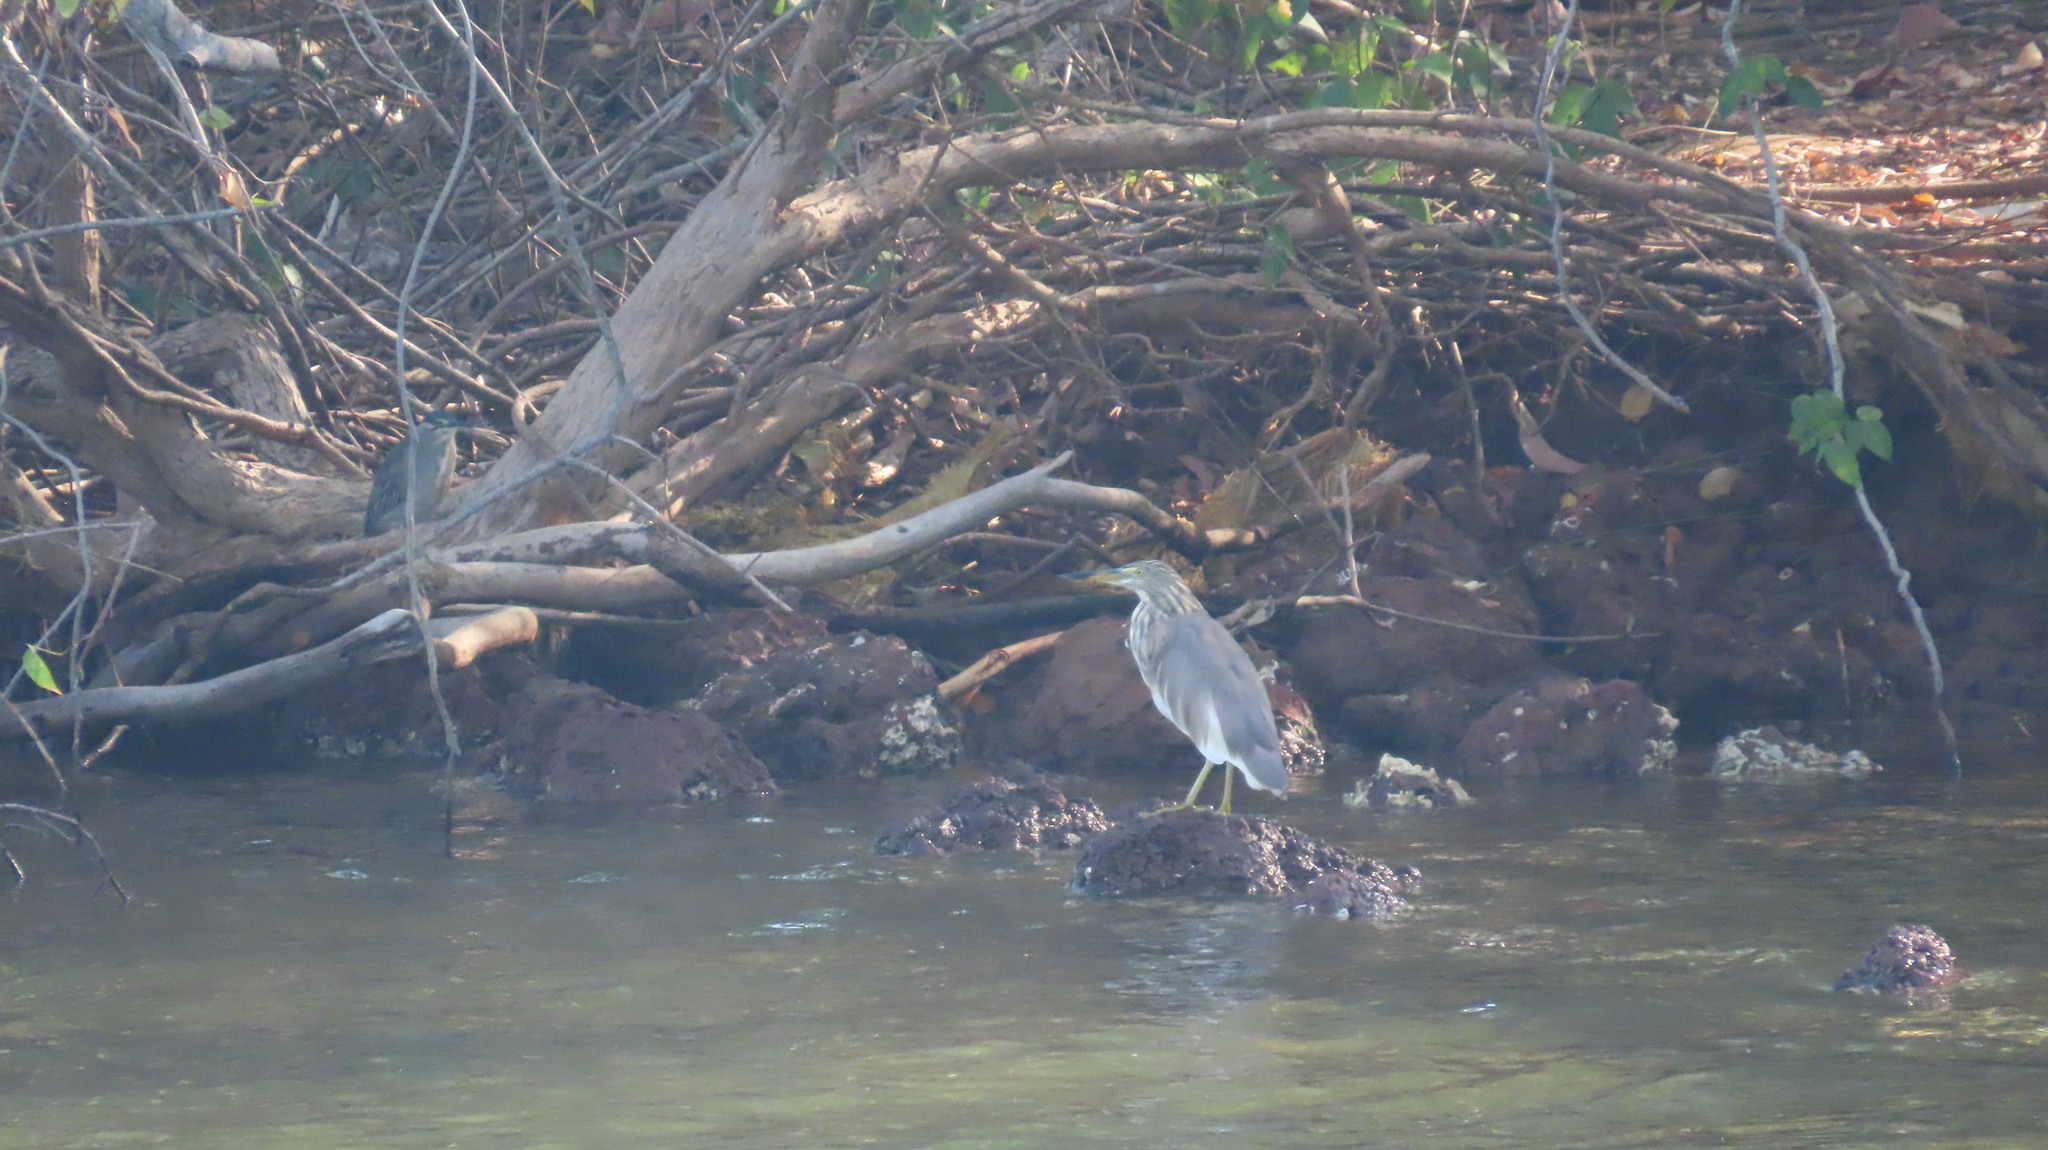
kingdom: Animalia
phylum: Chordata
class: Aves
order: Pelecaniformes
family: Ardeidae
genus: Ardeola
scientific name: Ardeola grayii
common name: Indian pond heron
